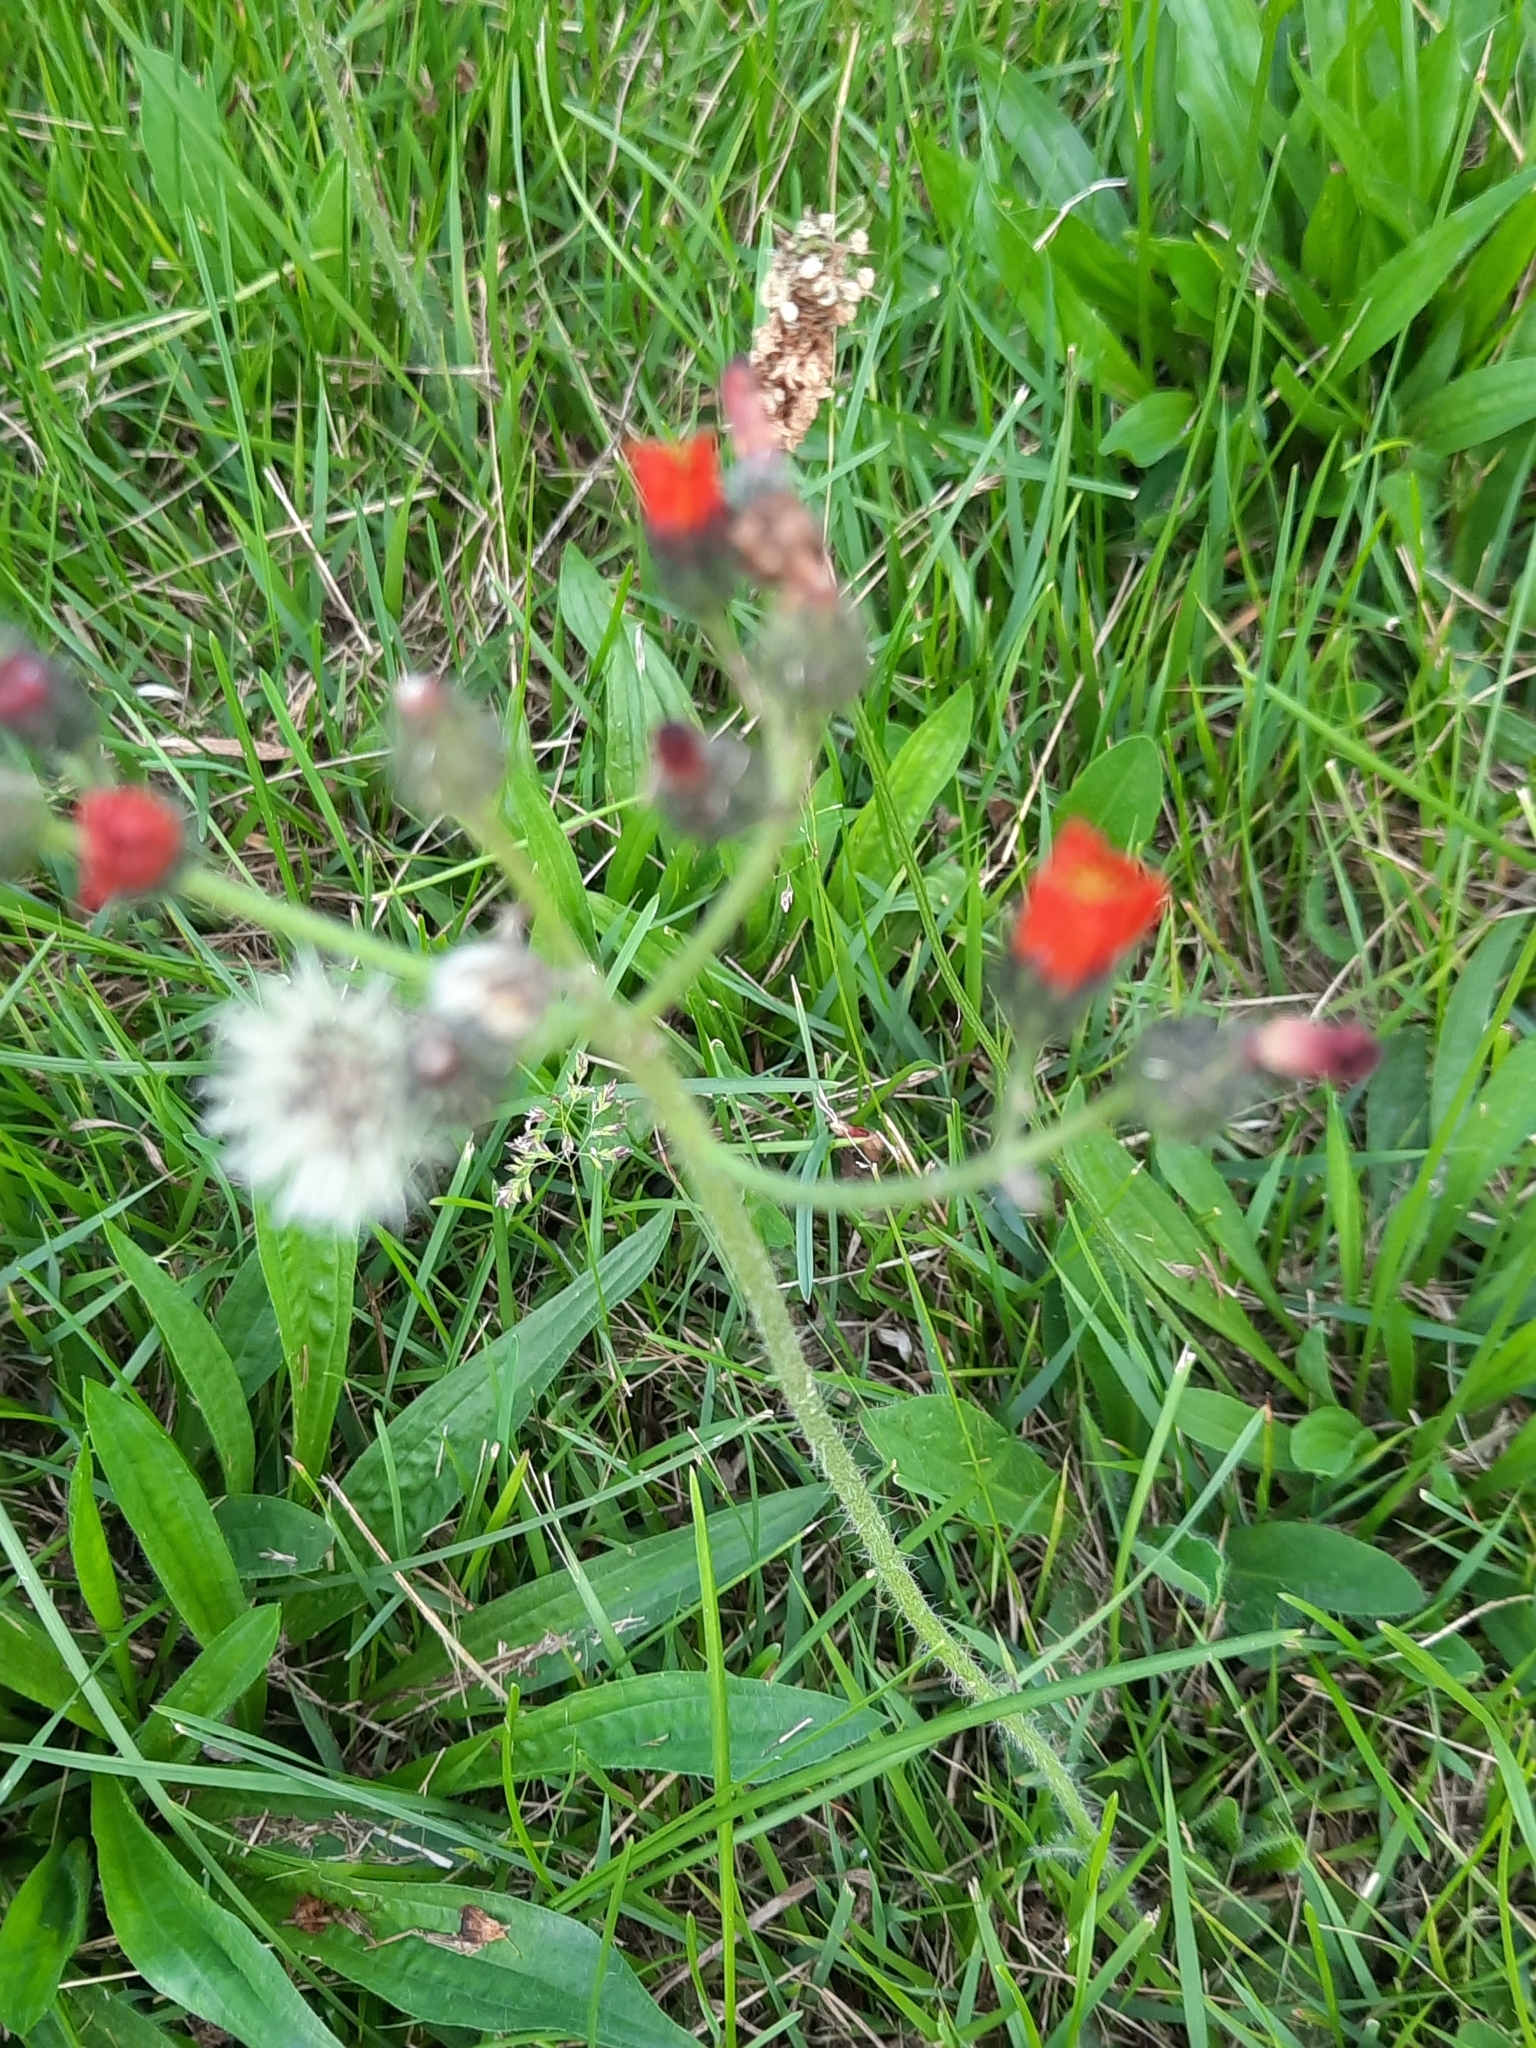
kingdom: Plantae
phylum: Tracheophyta
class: Magnoliopsida
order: Asterales
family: Asteraceae
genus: Pilosella
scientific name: Pilosella aurantiaca
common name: Fox-and-cubs
